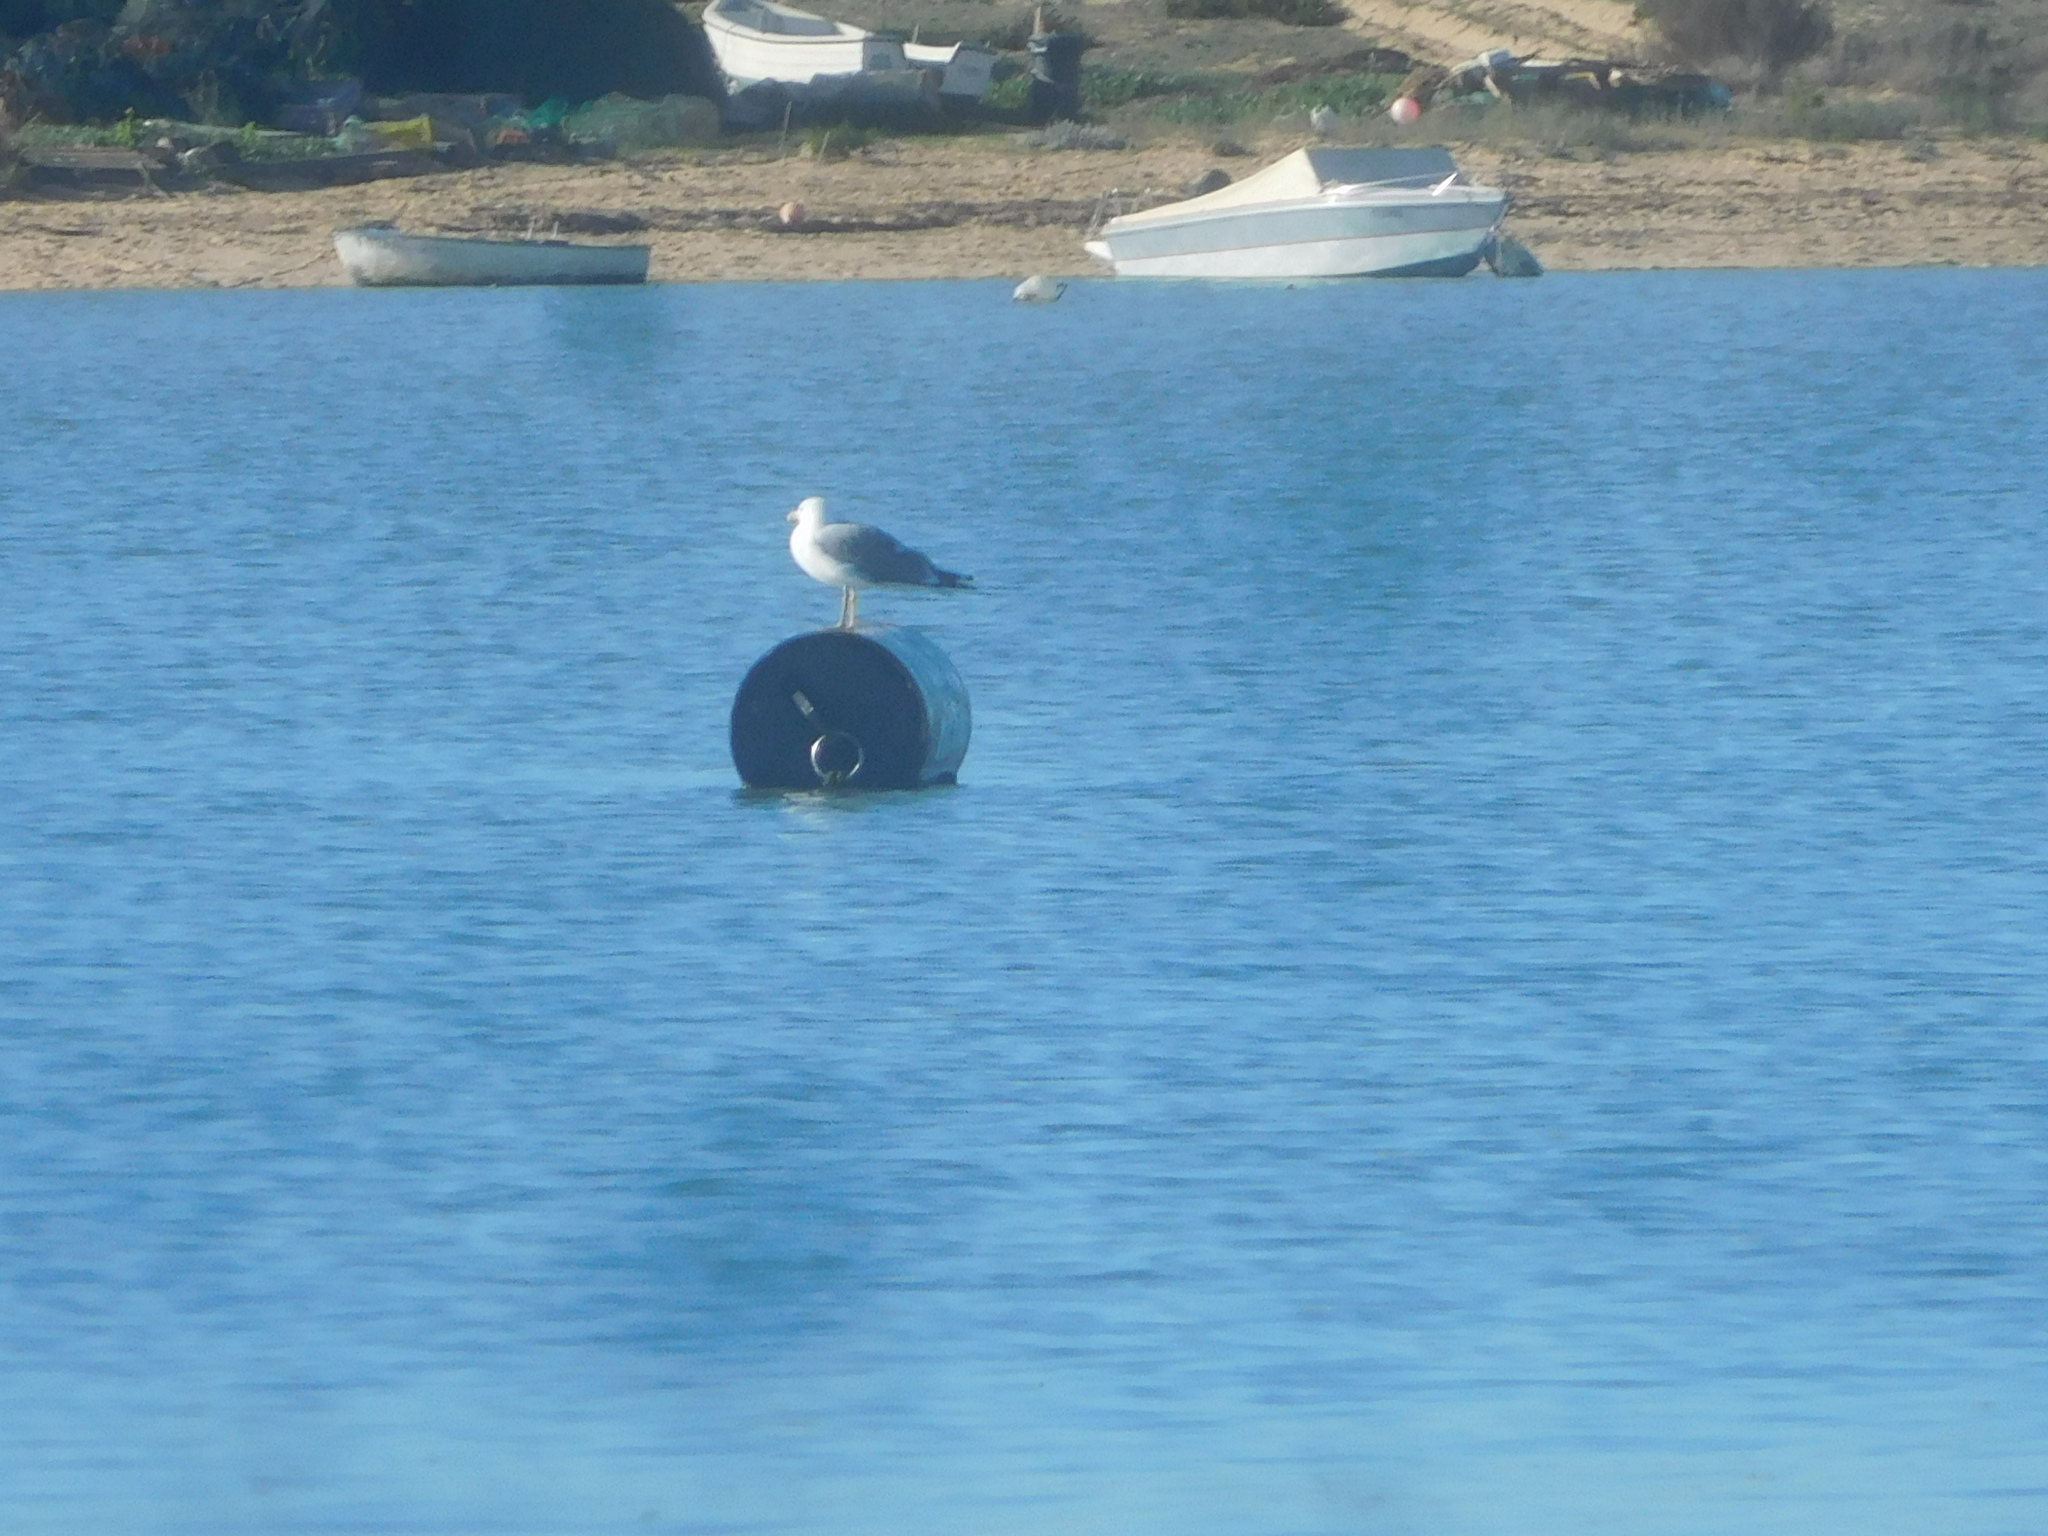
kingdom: Animalia
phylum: Chordata
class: Aves
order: Charadriiformes
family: Laridae
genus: Larus
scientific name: Larus michahellis
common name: Yellow-legged gull
